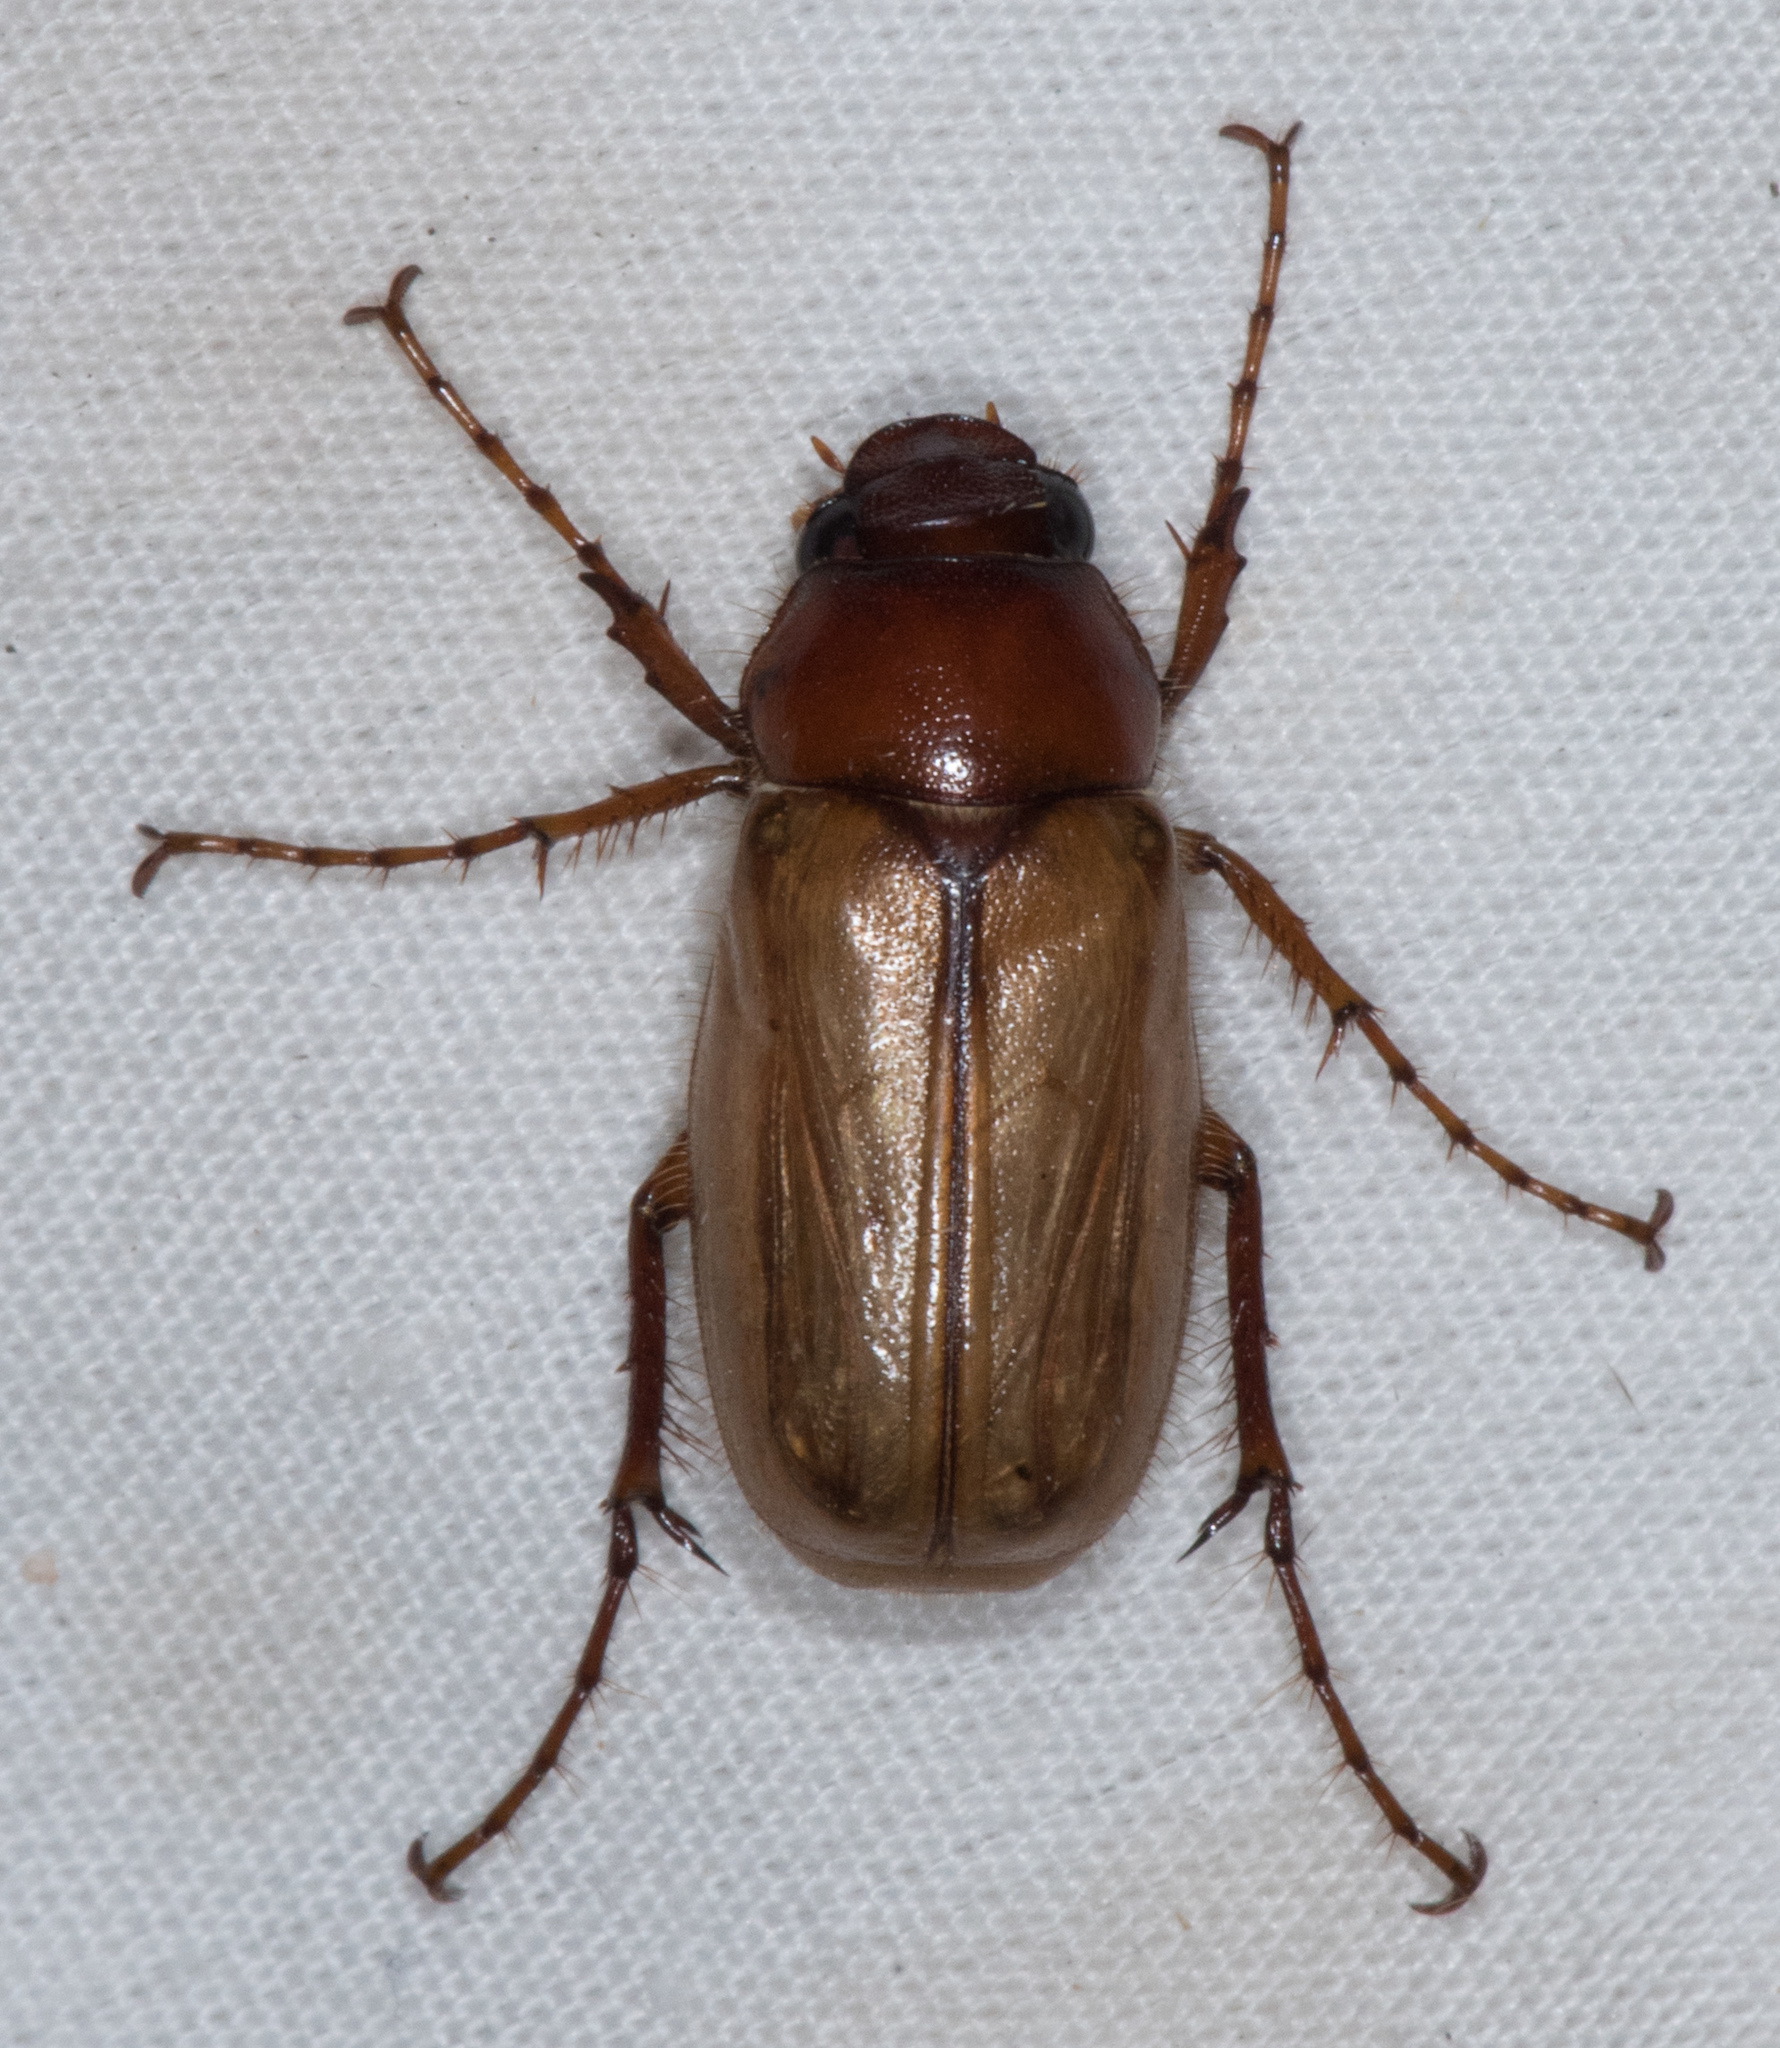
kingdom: Animalia
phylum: Arthropoda
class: Insecta
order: Coleoptera
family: Scarabaeidae
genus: Listrochelus
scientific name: Listrochelus flavipennis
